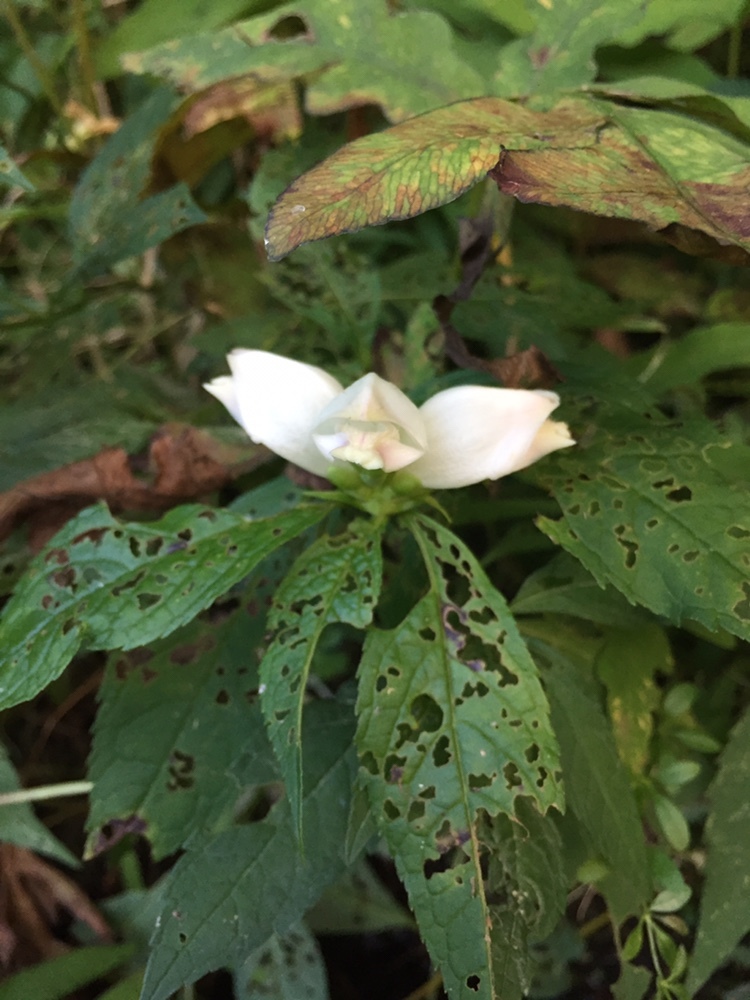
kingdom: Plantae
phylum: Tracheophyta
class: Magnoliopsida
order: Lamiales
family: Plantaginaceae
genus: Chelone
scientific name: Chelone glabra
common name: Snakehead
